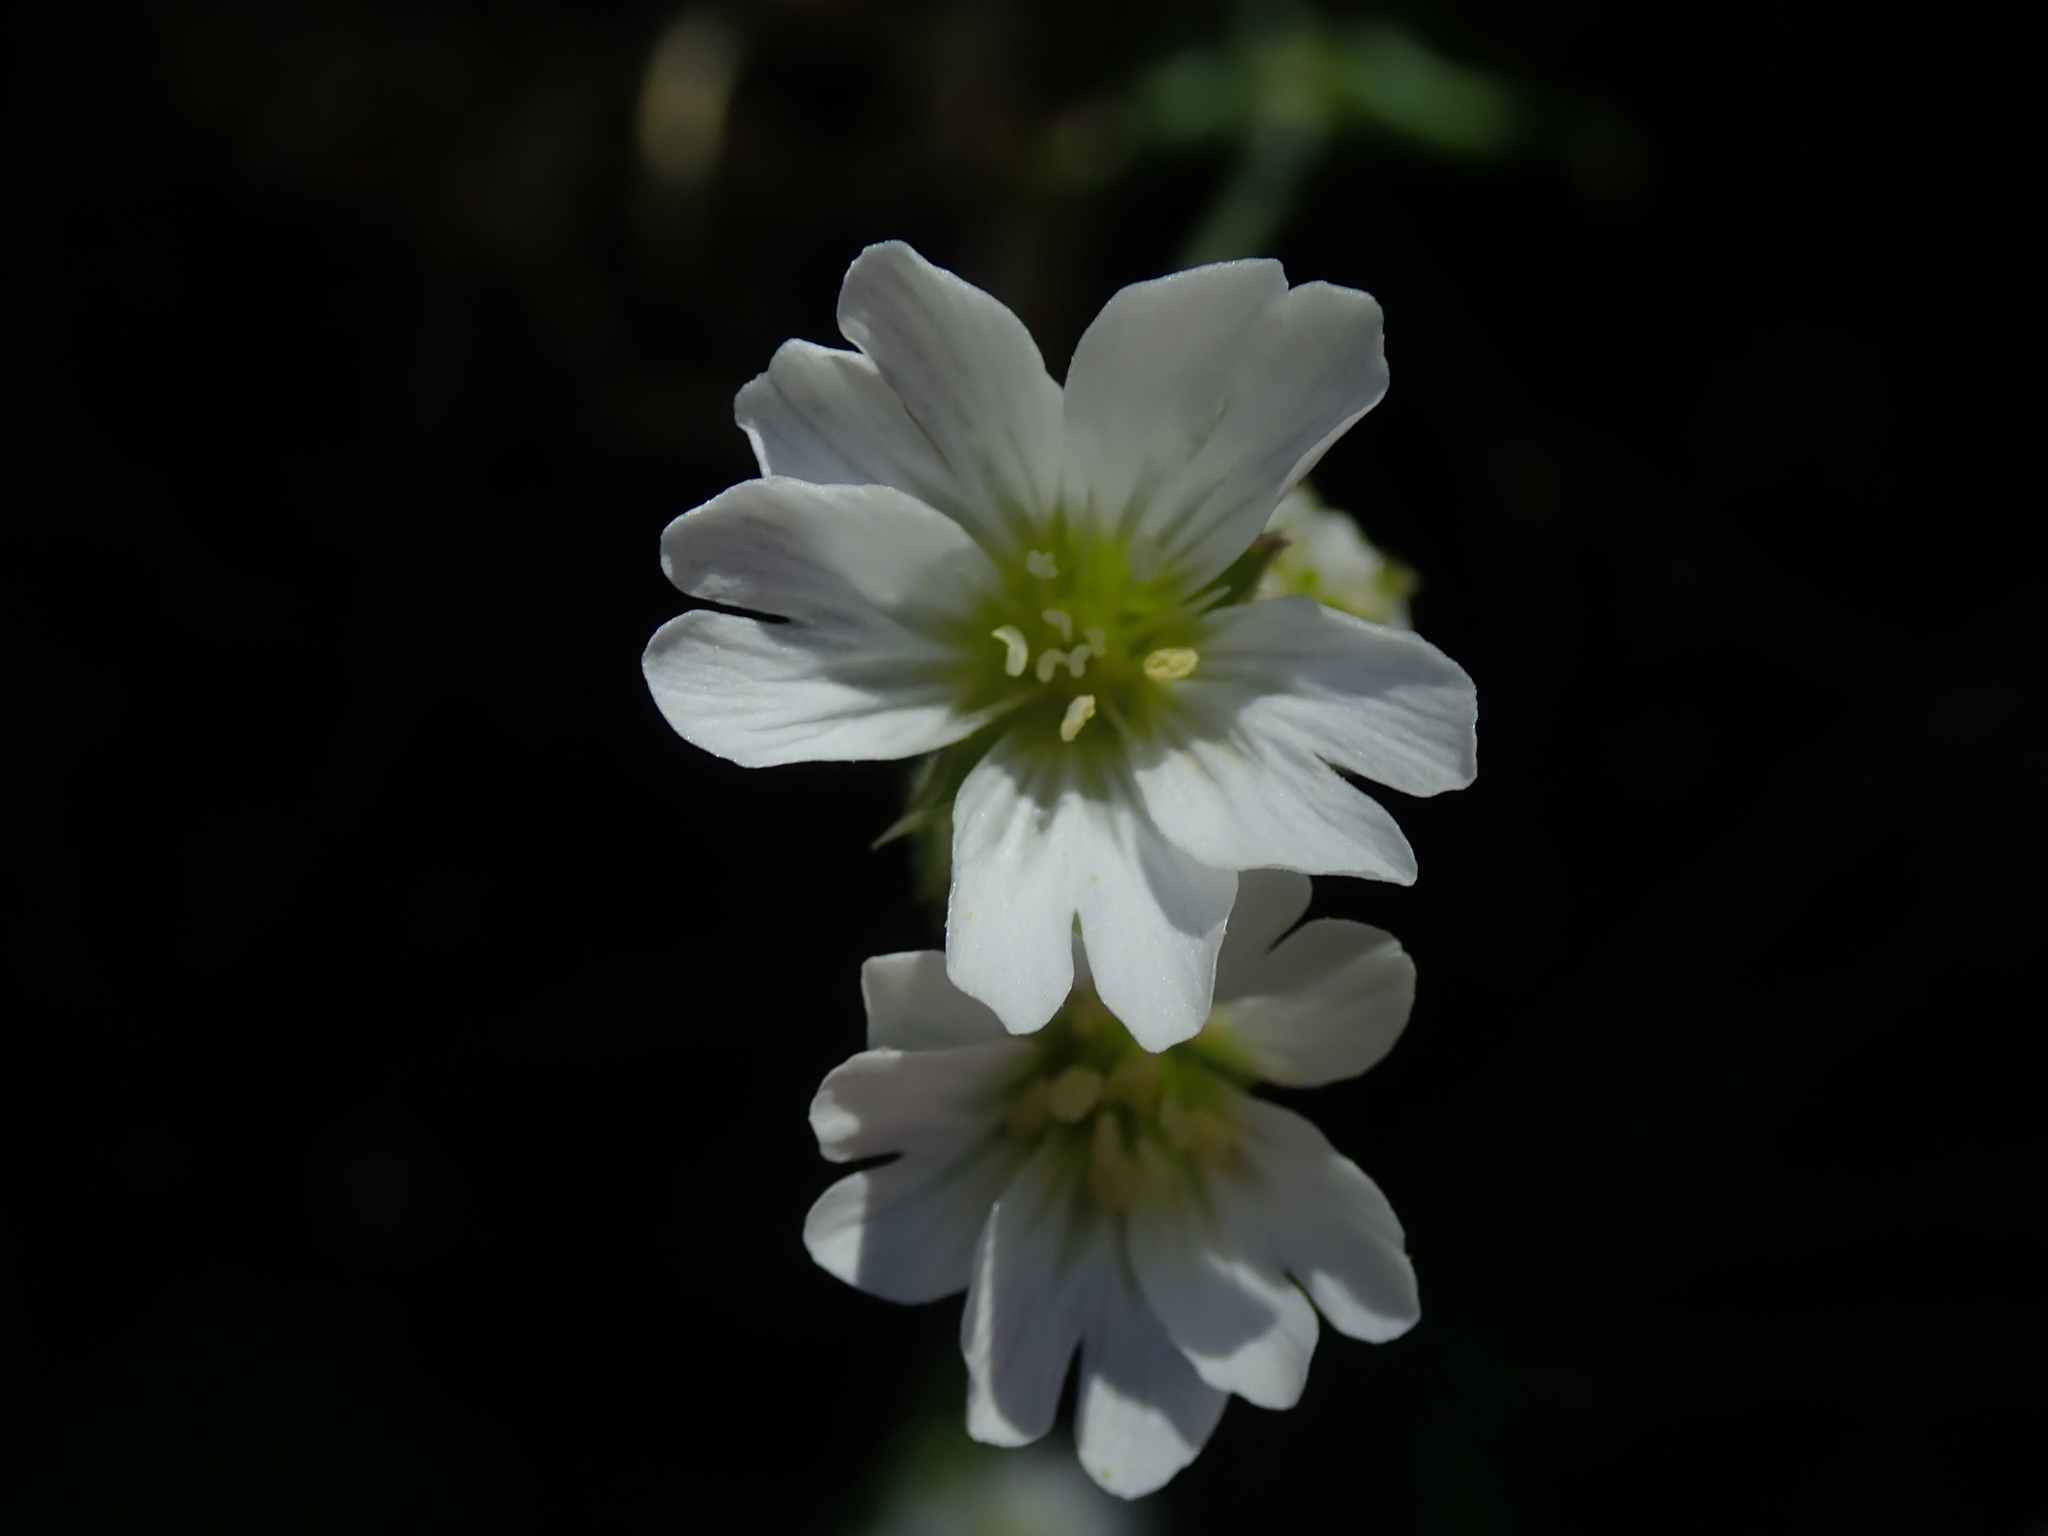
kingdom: Plantae
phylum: Tracheophyta
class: Magnoliopsida
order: Caryophyllales
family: Caryophyllaceae
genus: Cerastium
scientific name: Cerastium arvense
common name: Field mouse-ear
